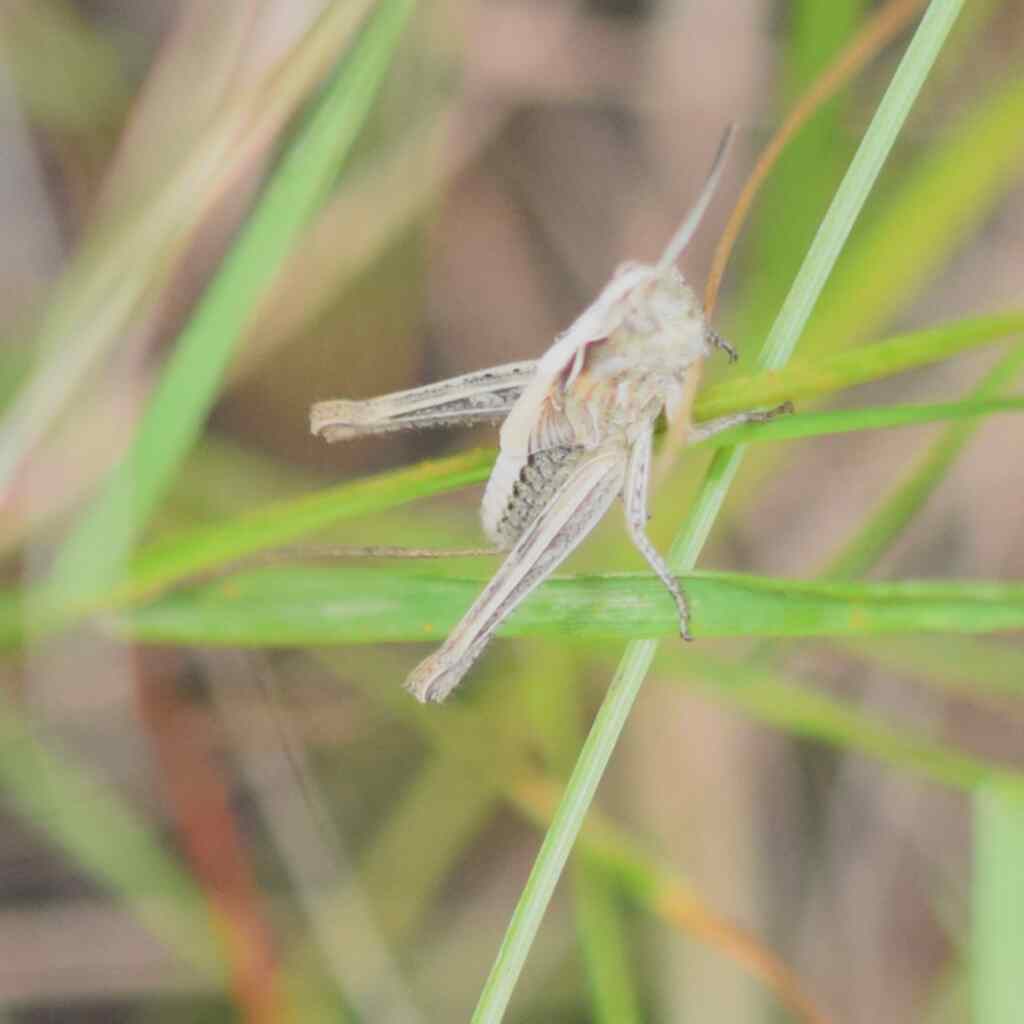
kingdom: Animalia
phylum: Arthropoda
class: Insecta
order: Orthoptera
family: Acrididae
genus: Chorthippus
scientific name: Chorthippus brunneus
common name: Field grasshopper
